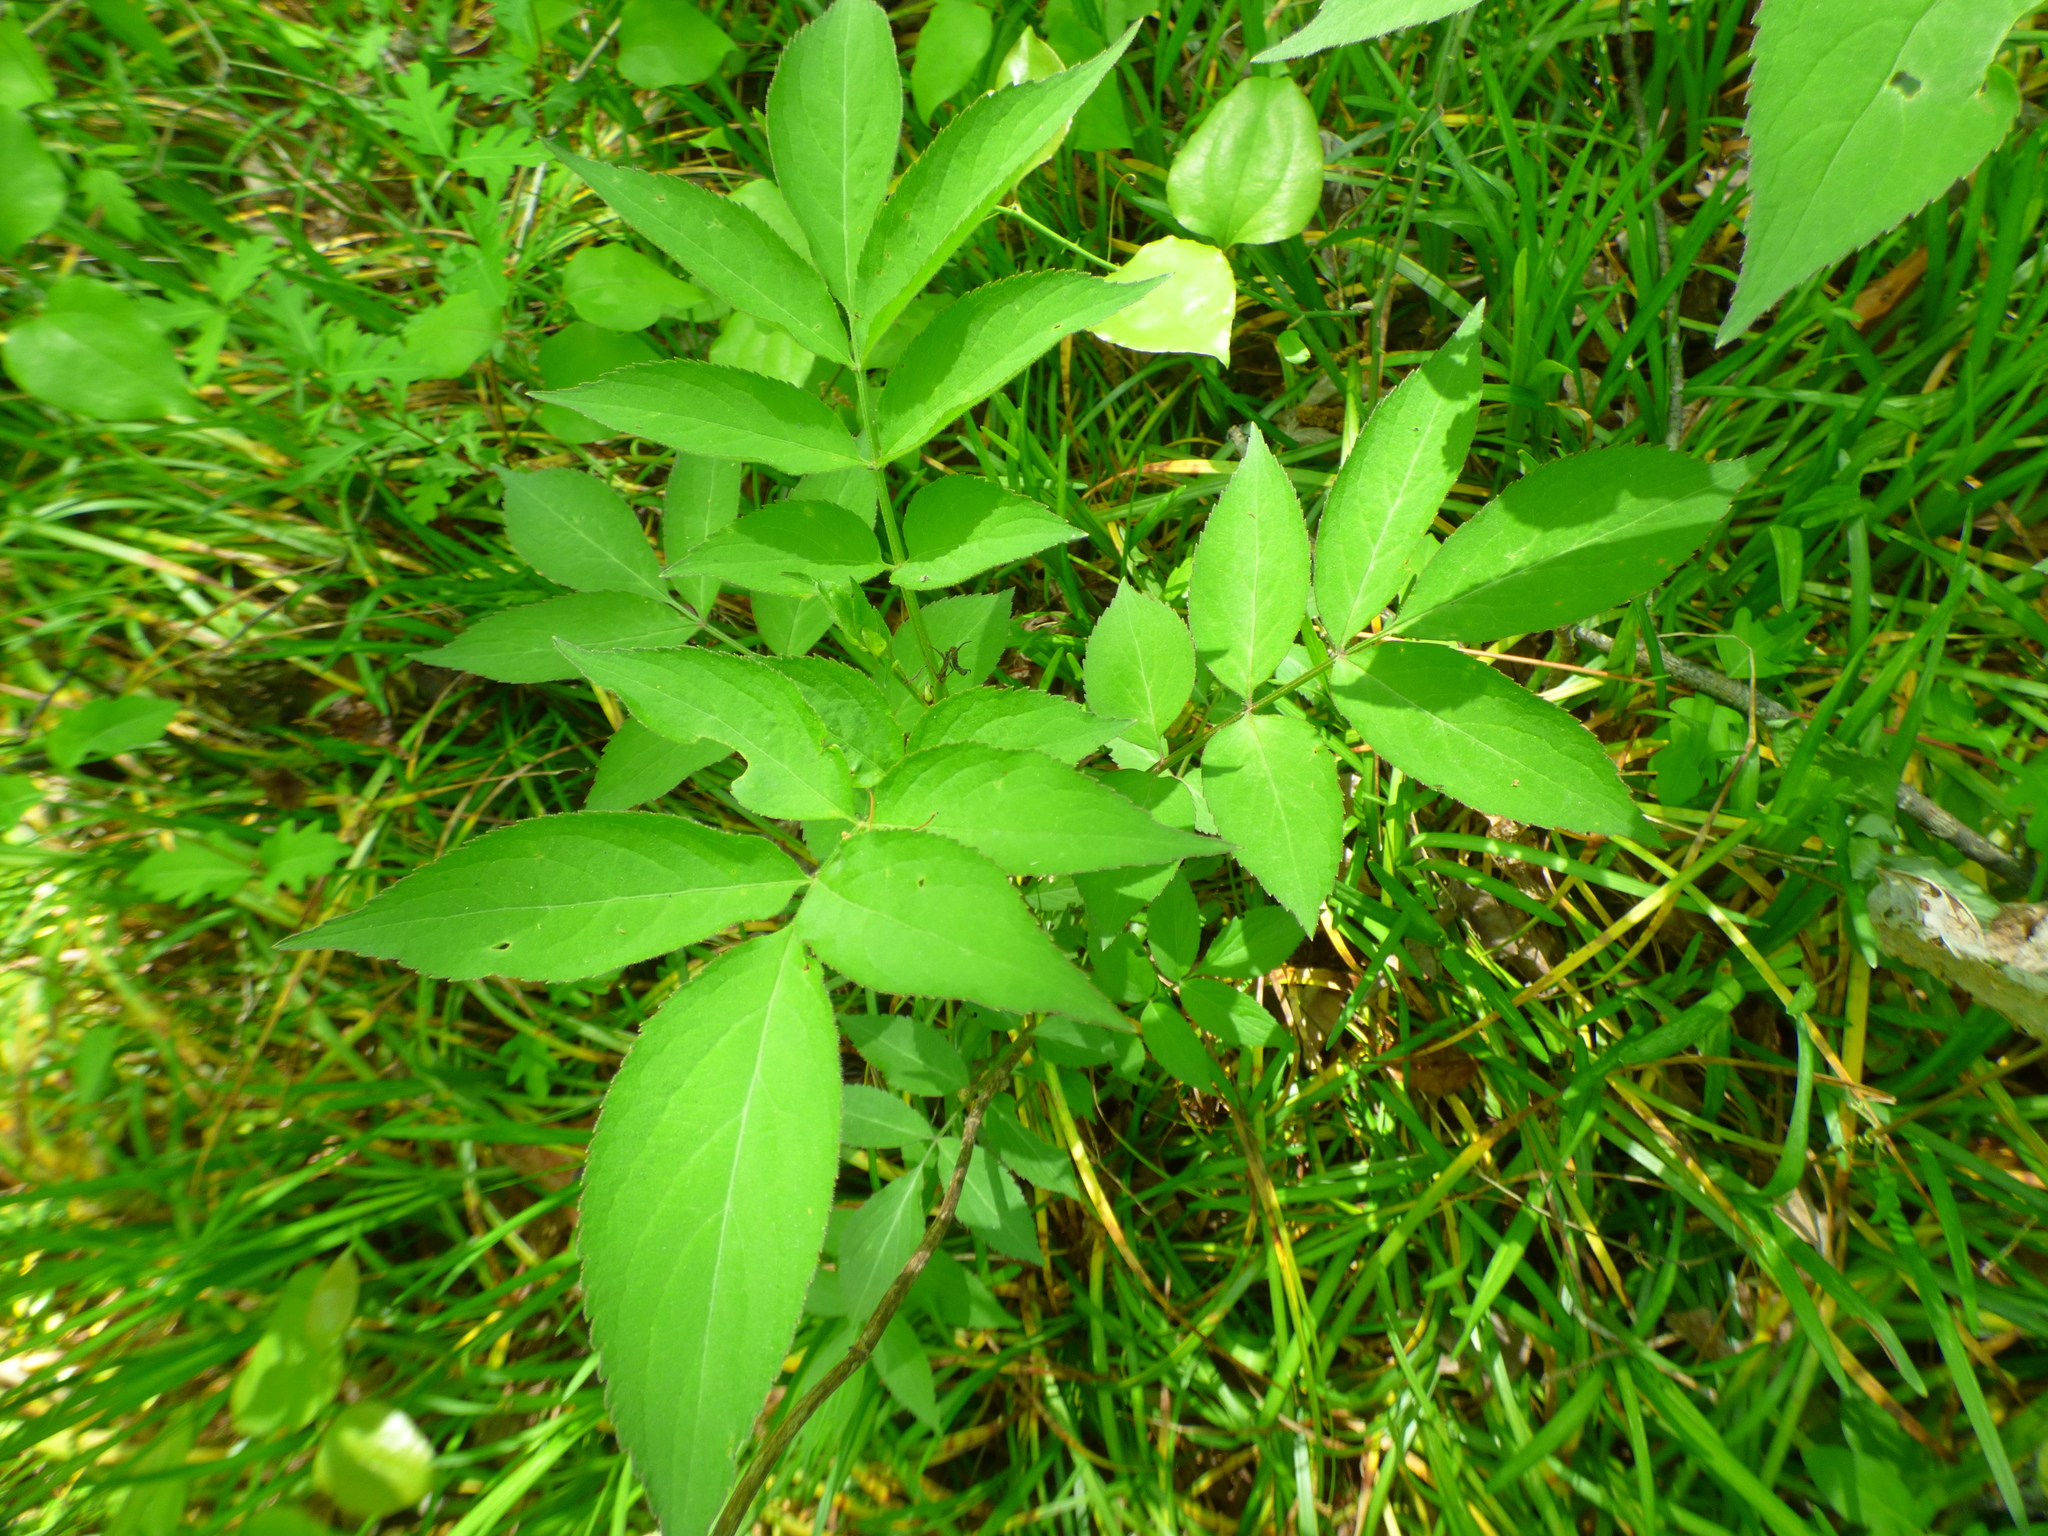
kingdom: Plantae
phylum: Tracheophyta
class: Magnoliopsida
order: Dipsacales
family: Viburnaceae
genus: Sambucus
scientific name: Sambucus canadensis
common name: American elder
